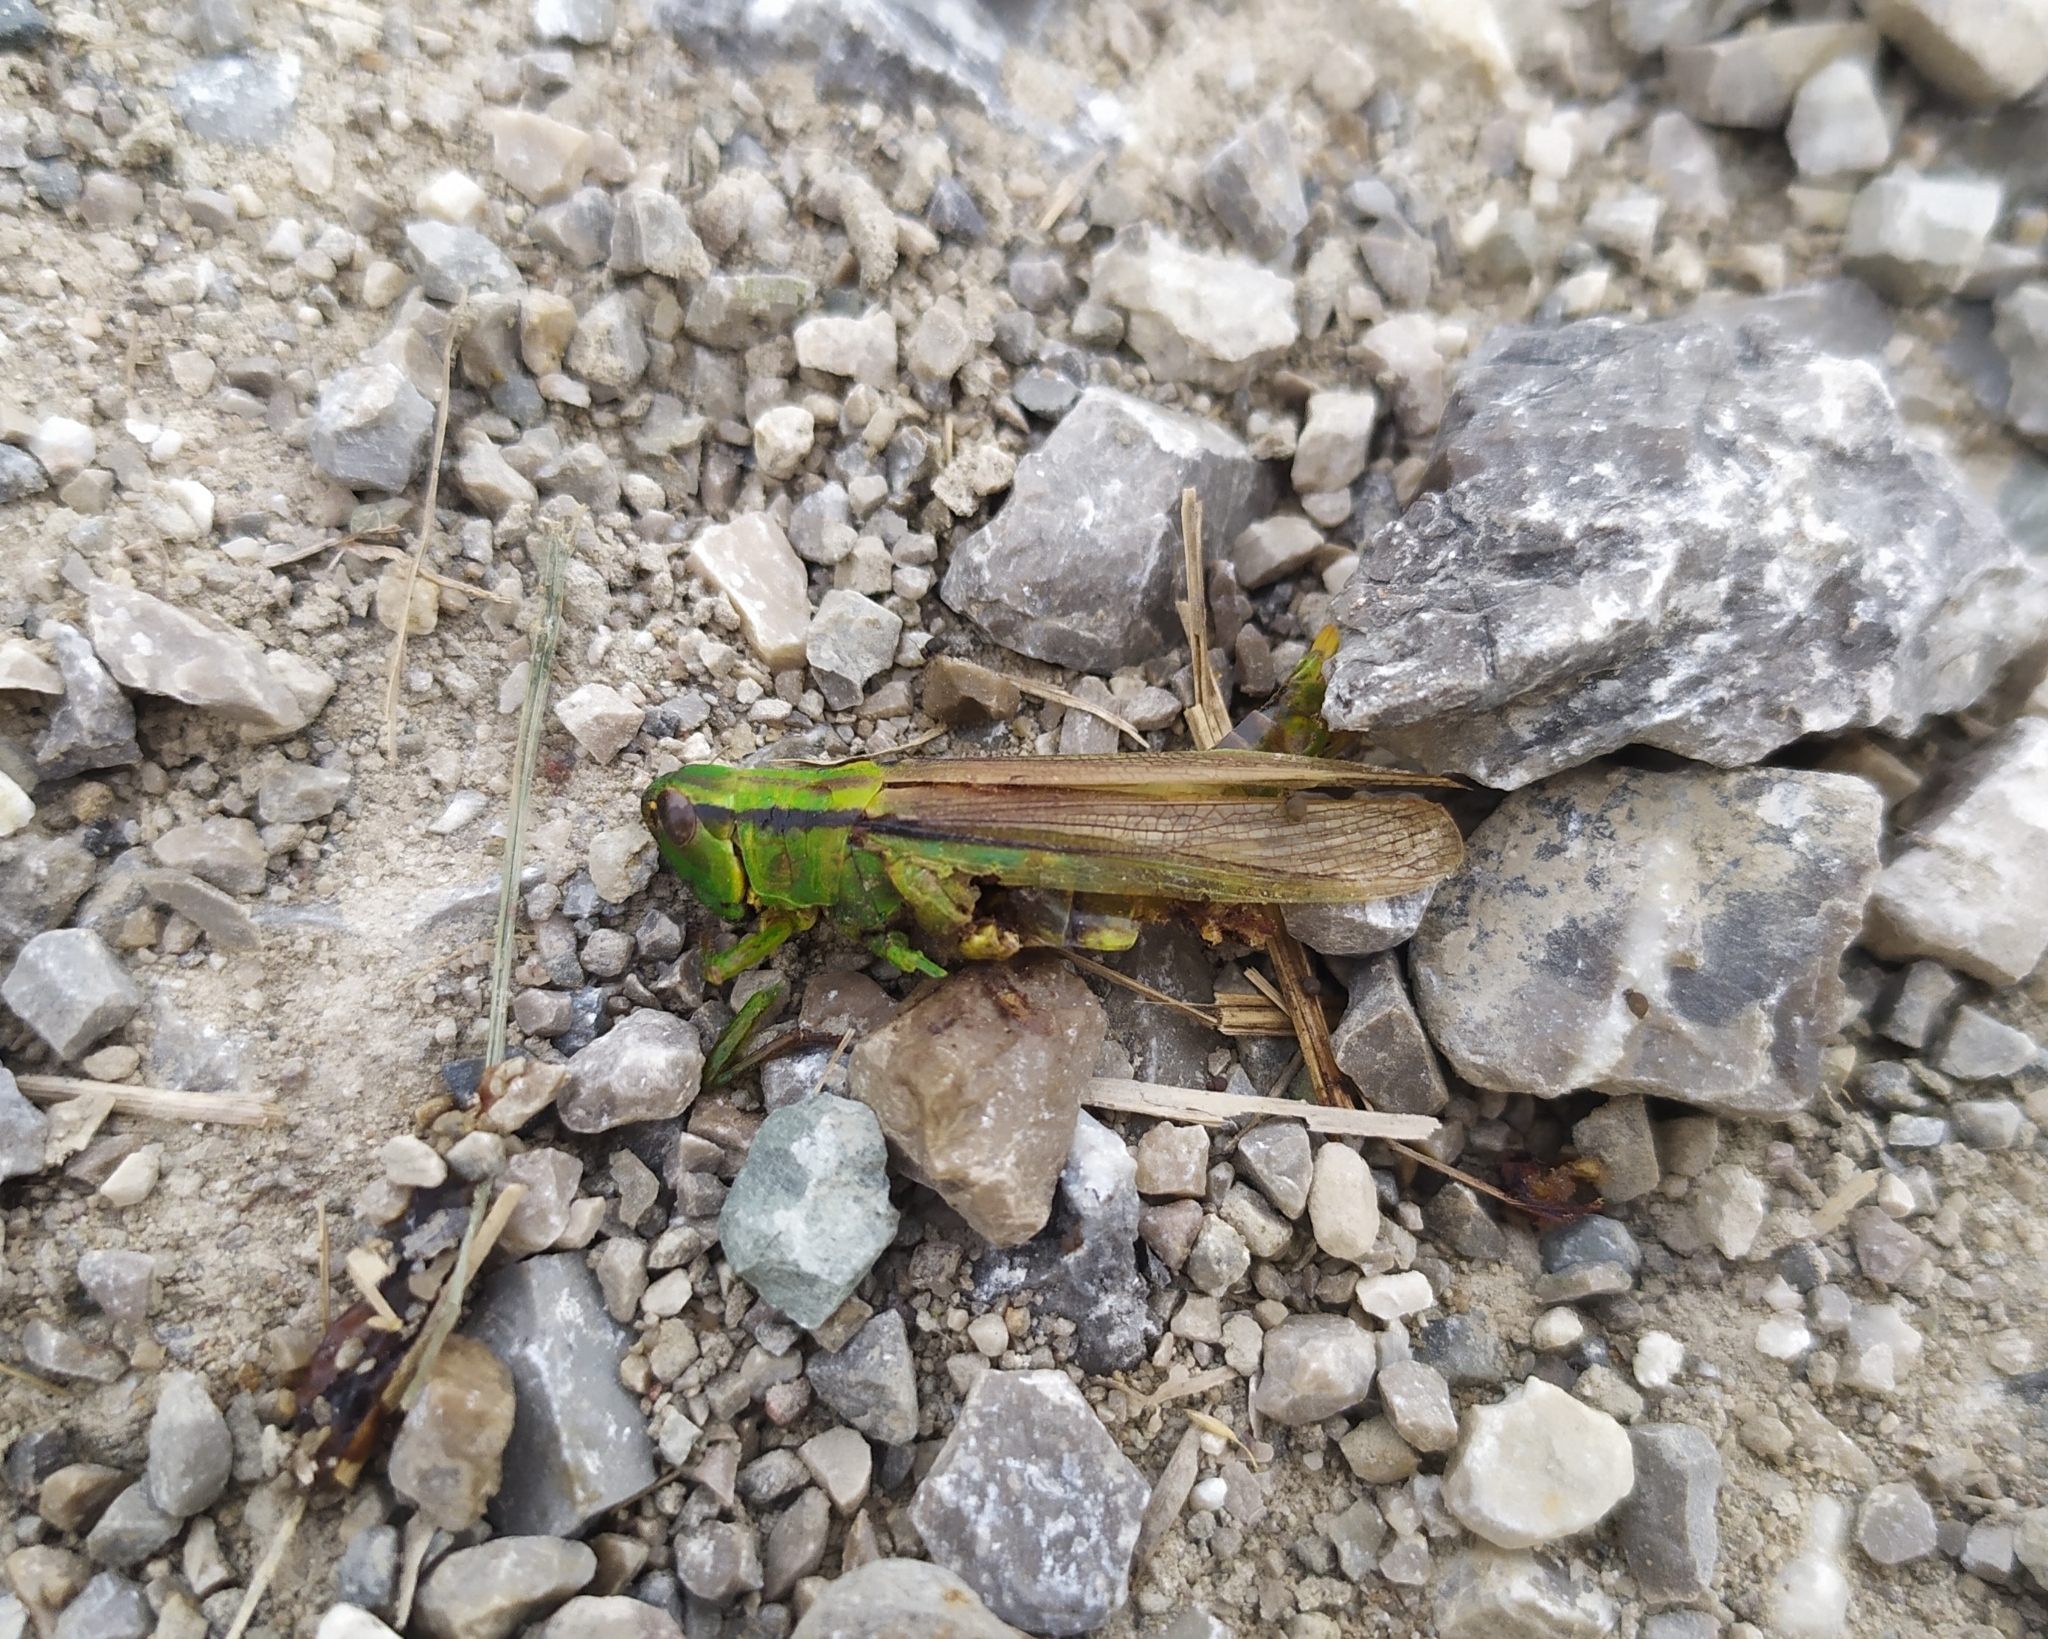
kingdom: Animalia
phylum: Arthropoda
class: Insecta
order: Orthoptera
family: Acrididae
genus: Mecostethus
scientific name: Mecostethus parapleurus
